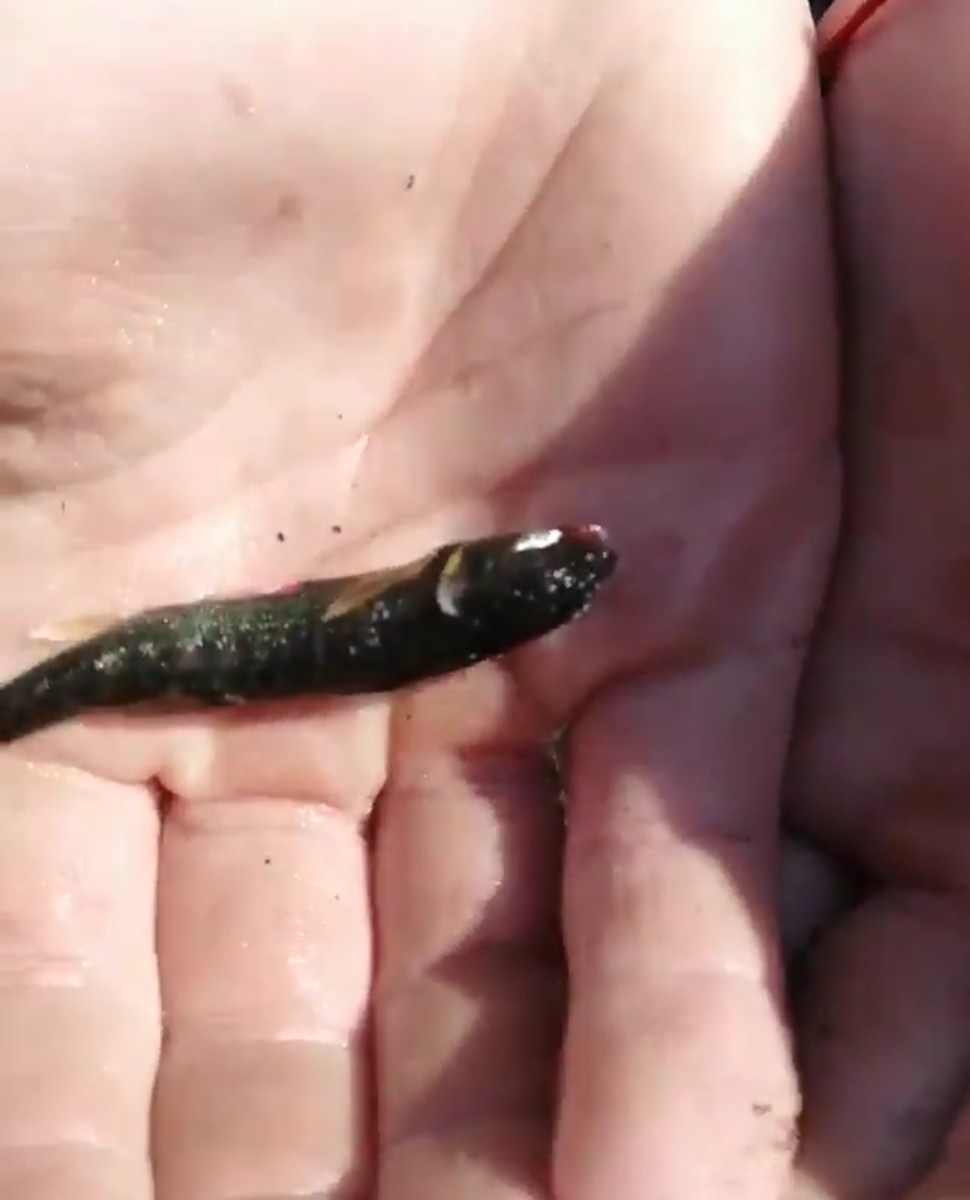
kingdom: Animalia
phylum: Chordata
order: Cypriniformes
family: Cyprinidae
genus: Phoxinus
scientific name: Phoxinus ujmonensis
